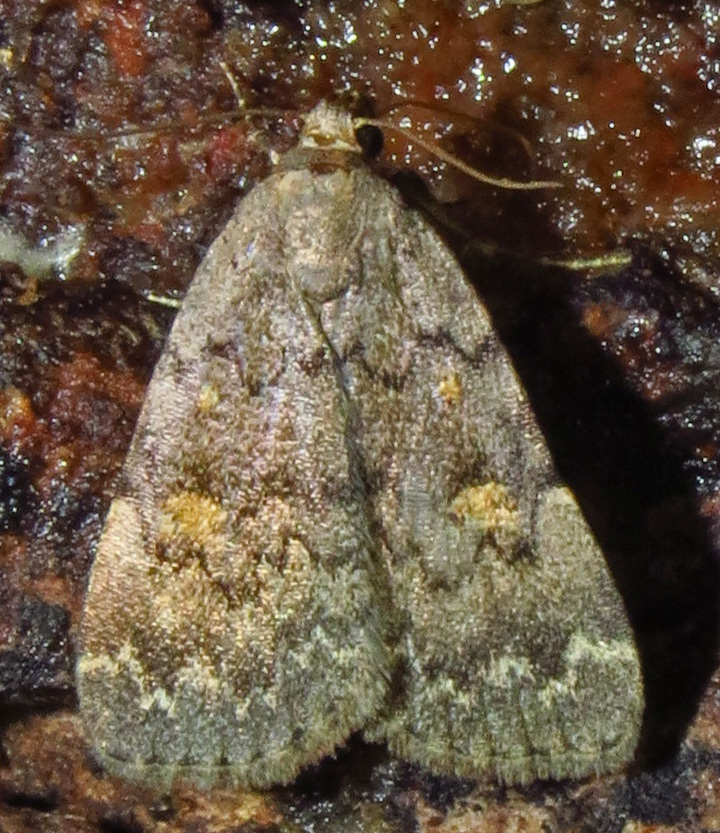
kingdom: Animalia
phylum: Arthropoda
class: Insecta
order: Lepidoptera
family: Erebidae
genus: Idia
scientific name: Idia aemula
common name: Common idia moth
